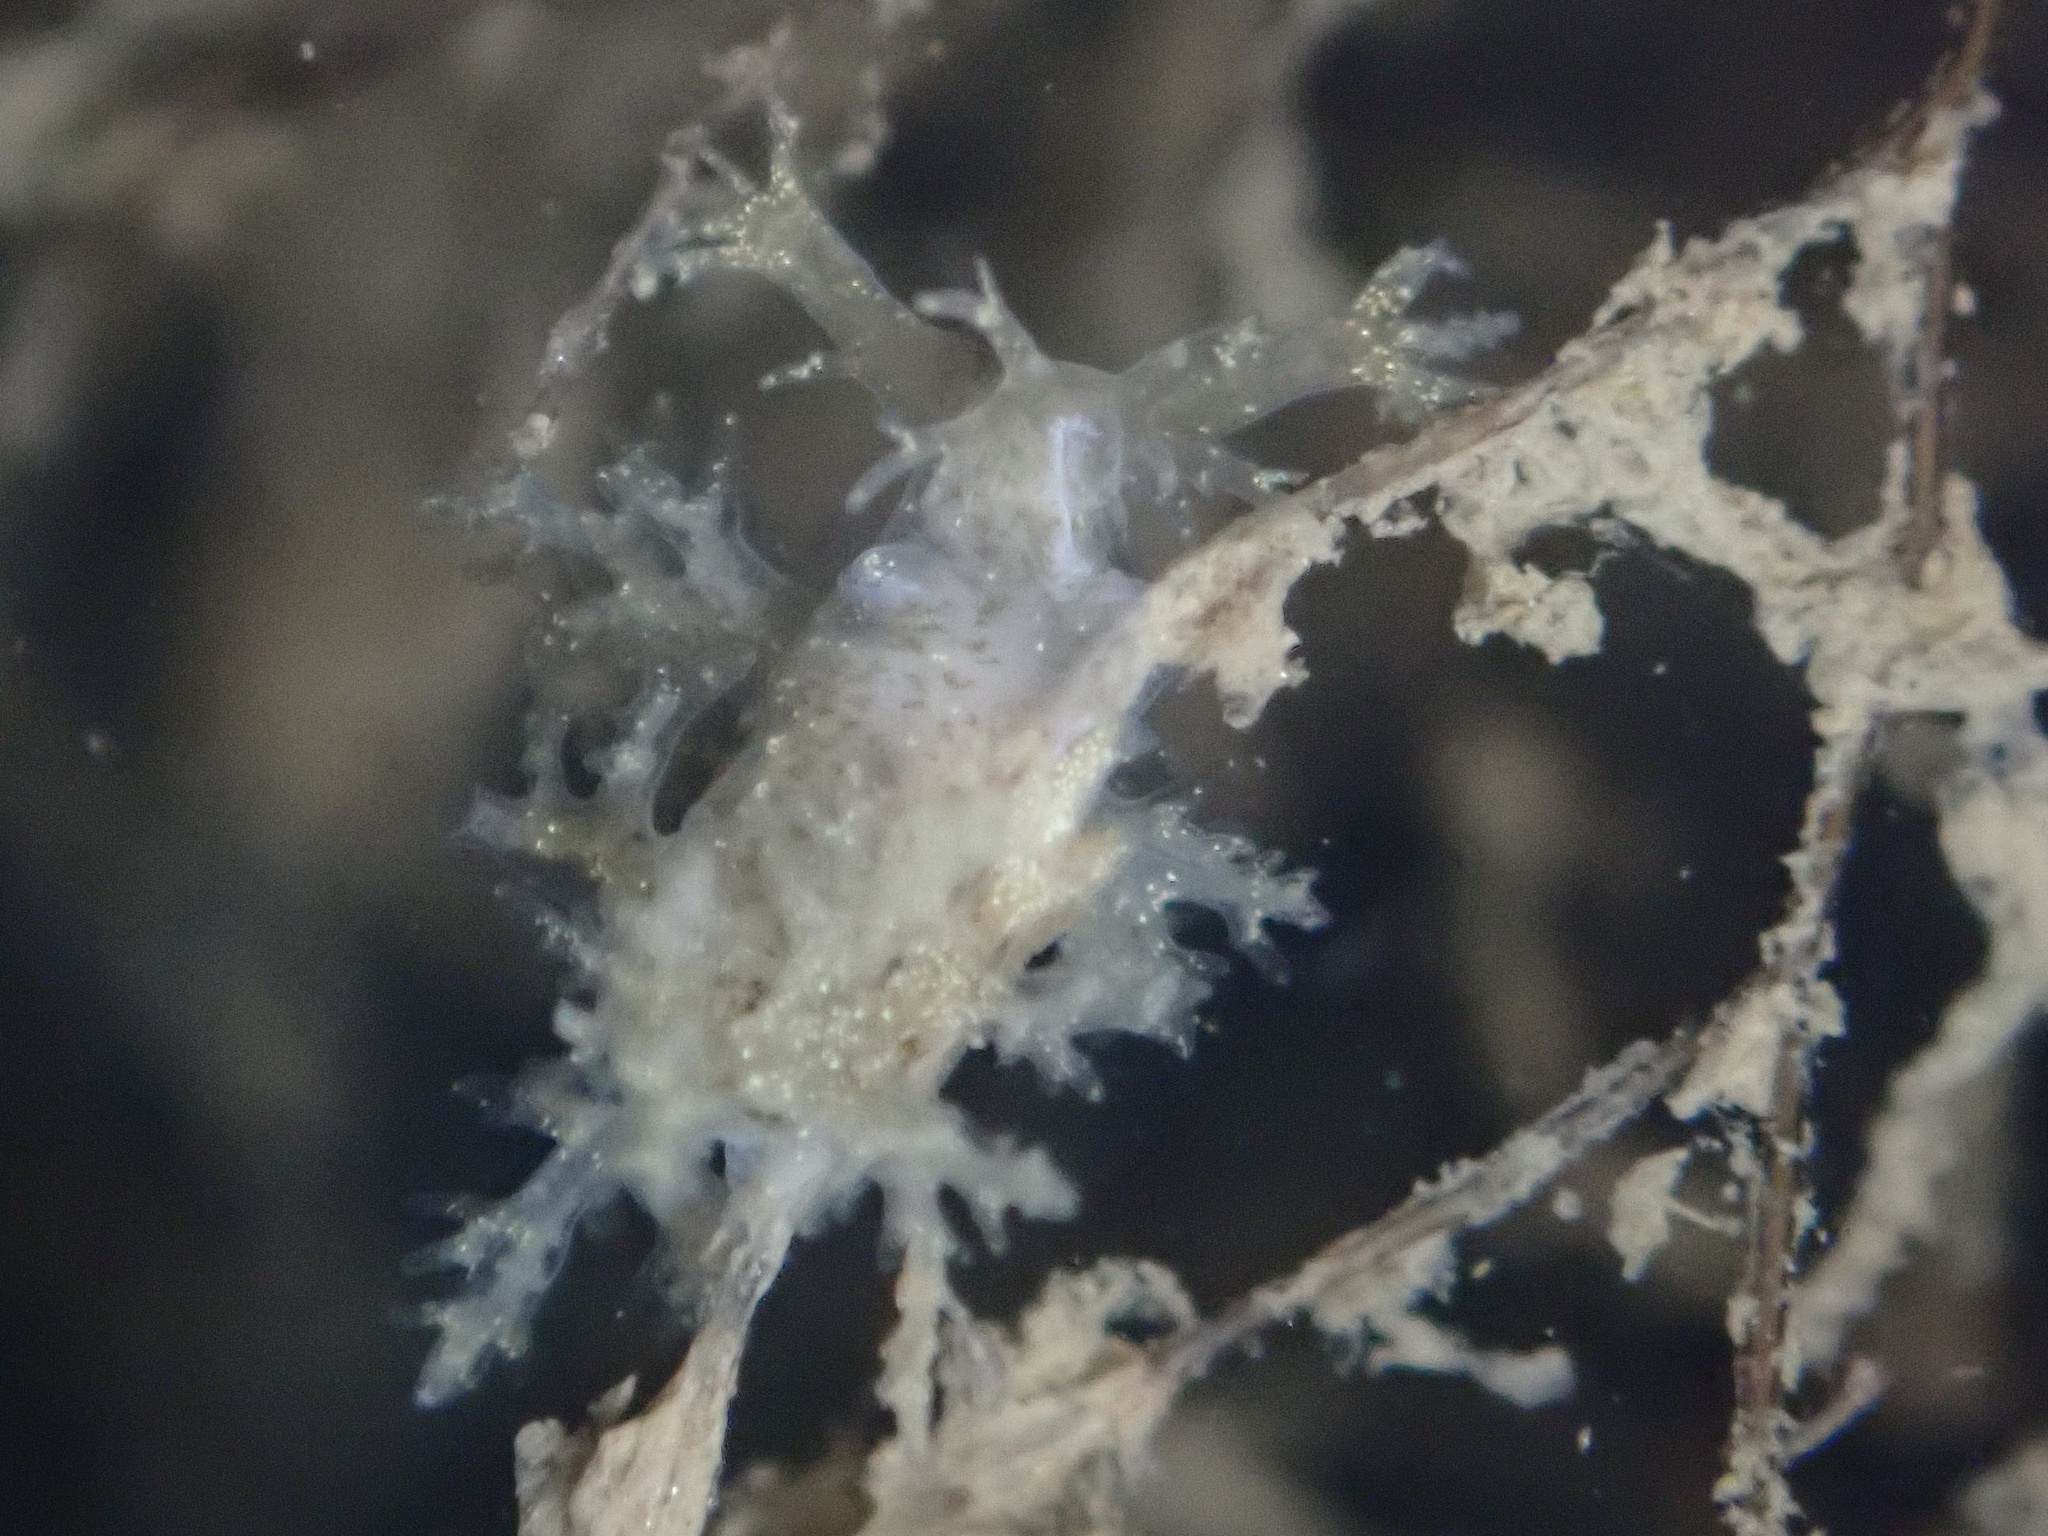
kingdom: Animalia
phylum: Mollusca
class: Gastropoda
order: Nudibranchia
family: Dendronotidae
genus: Dendronotus
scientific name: Dendronotus venustus
